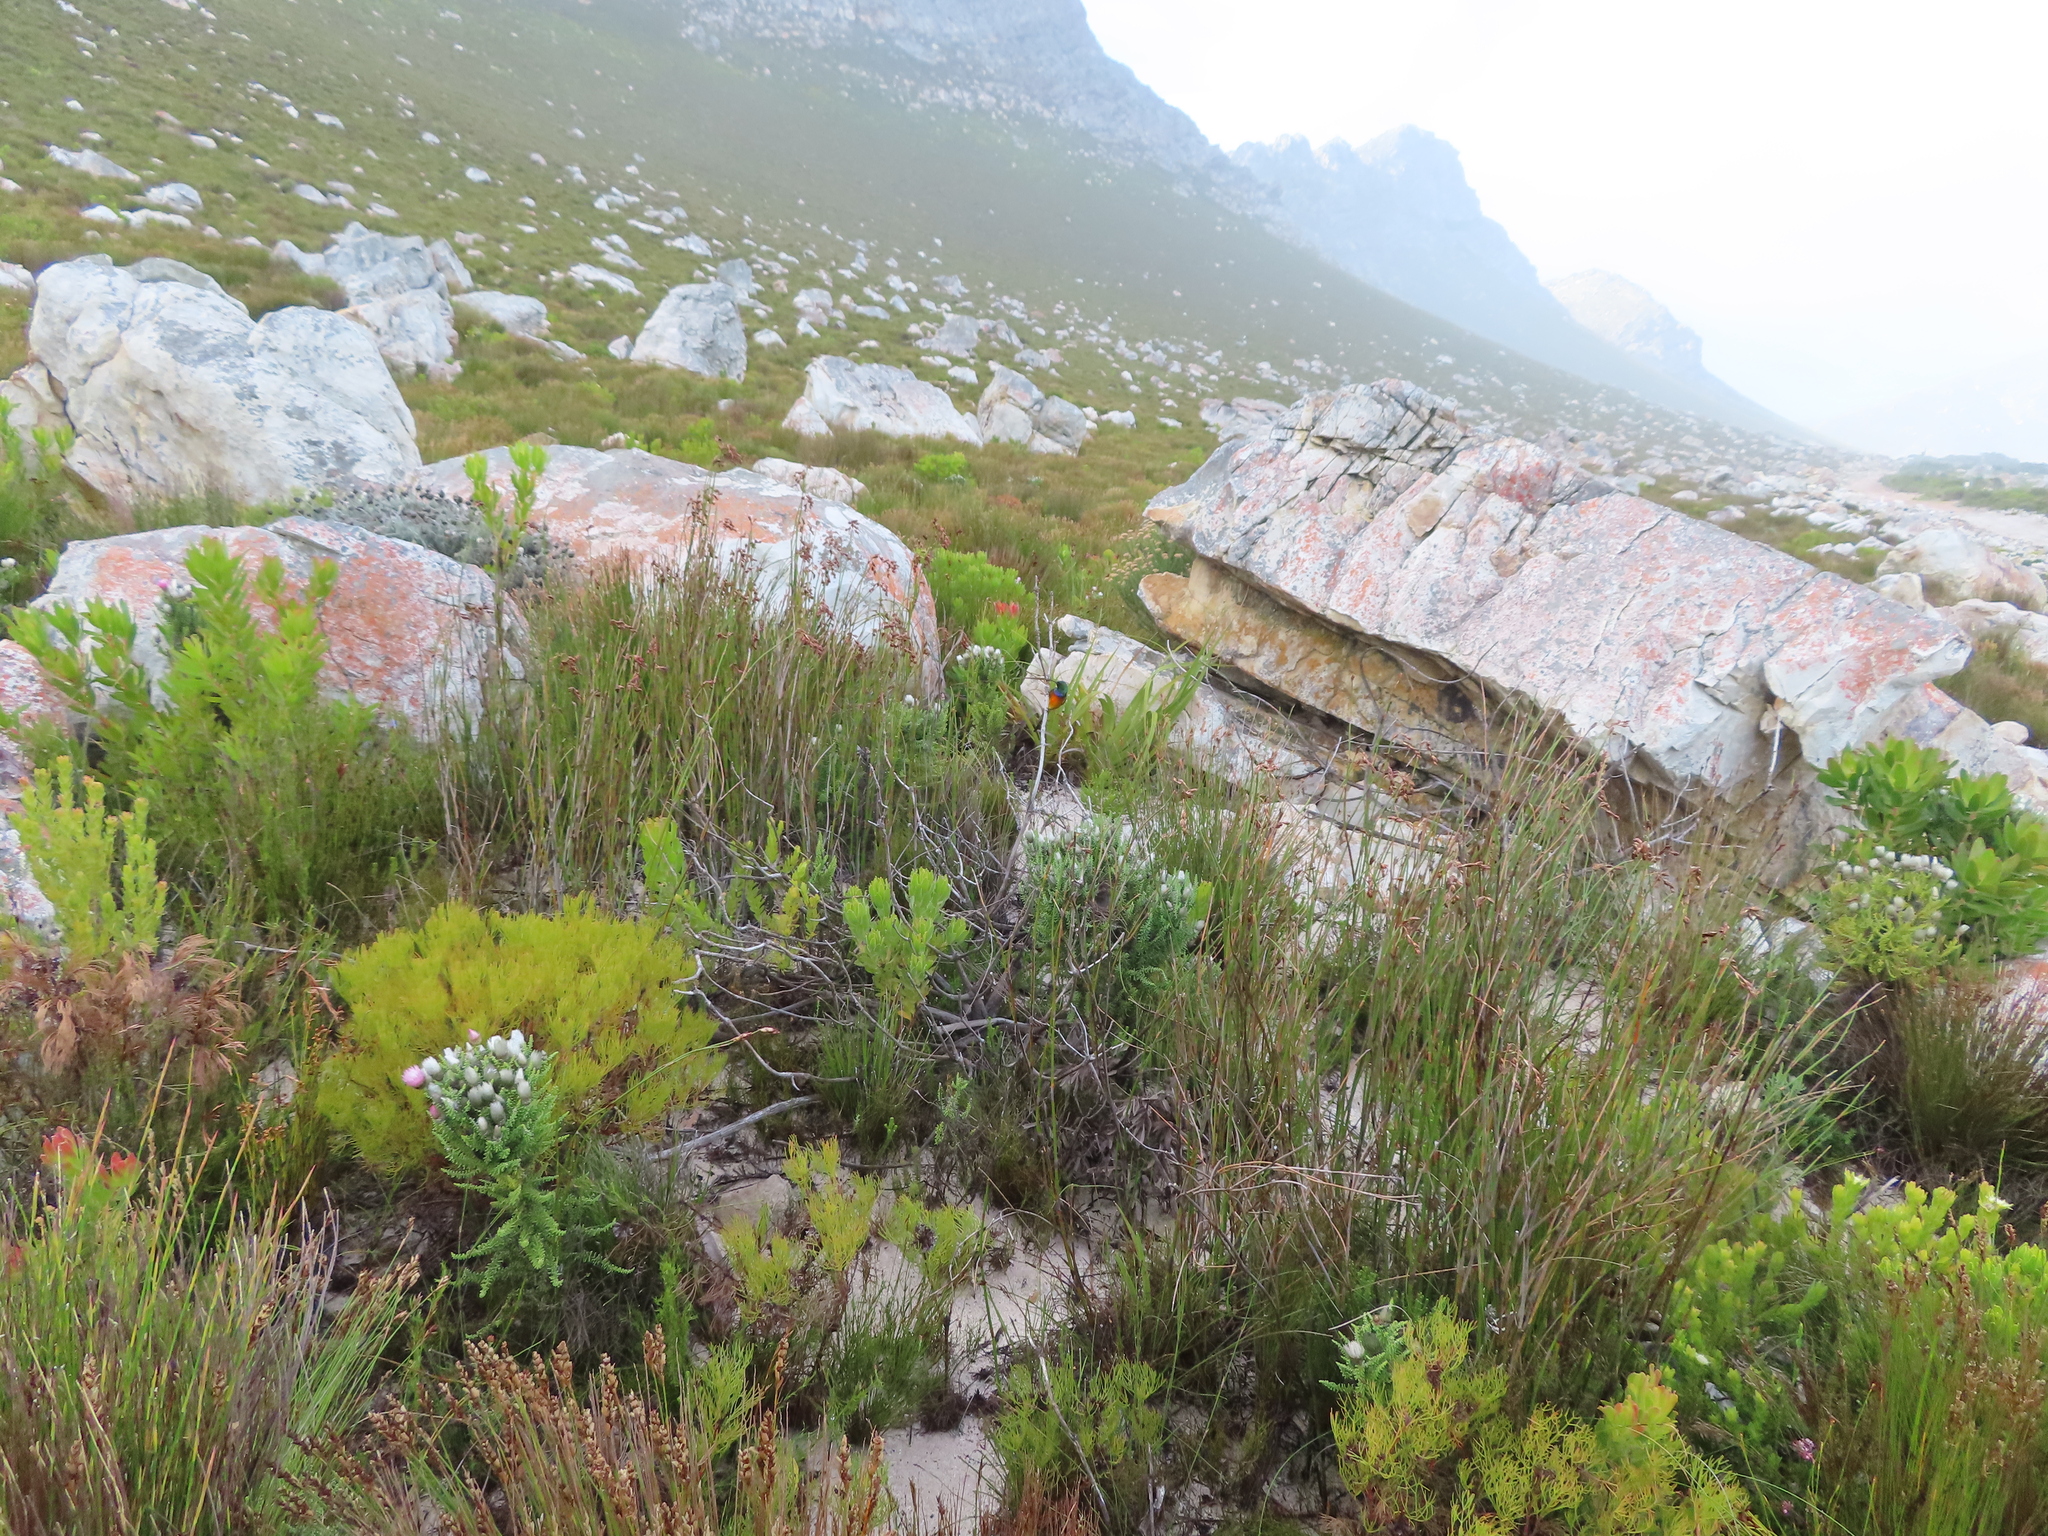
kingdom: Animalia
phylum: Chordata
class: Aves
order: Passeriformes
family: Nectariniidae
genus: Anthobaphes
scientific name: Anthobaphes violacea
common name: Orange-breasted sunbird
